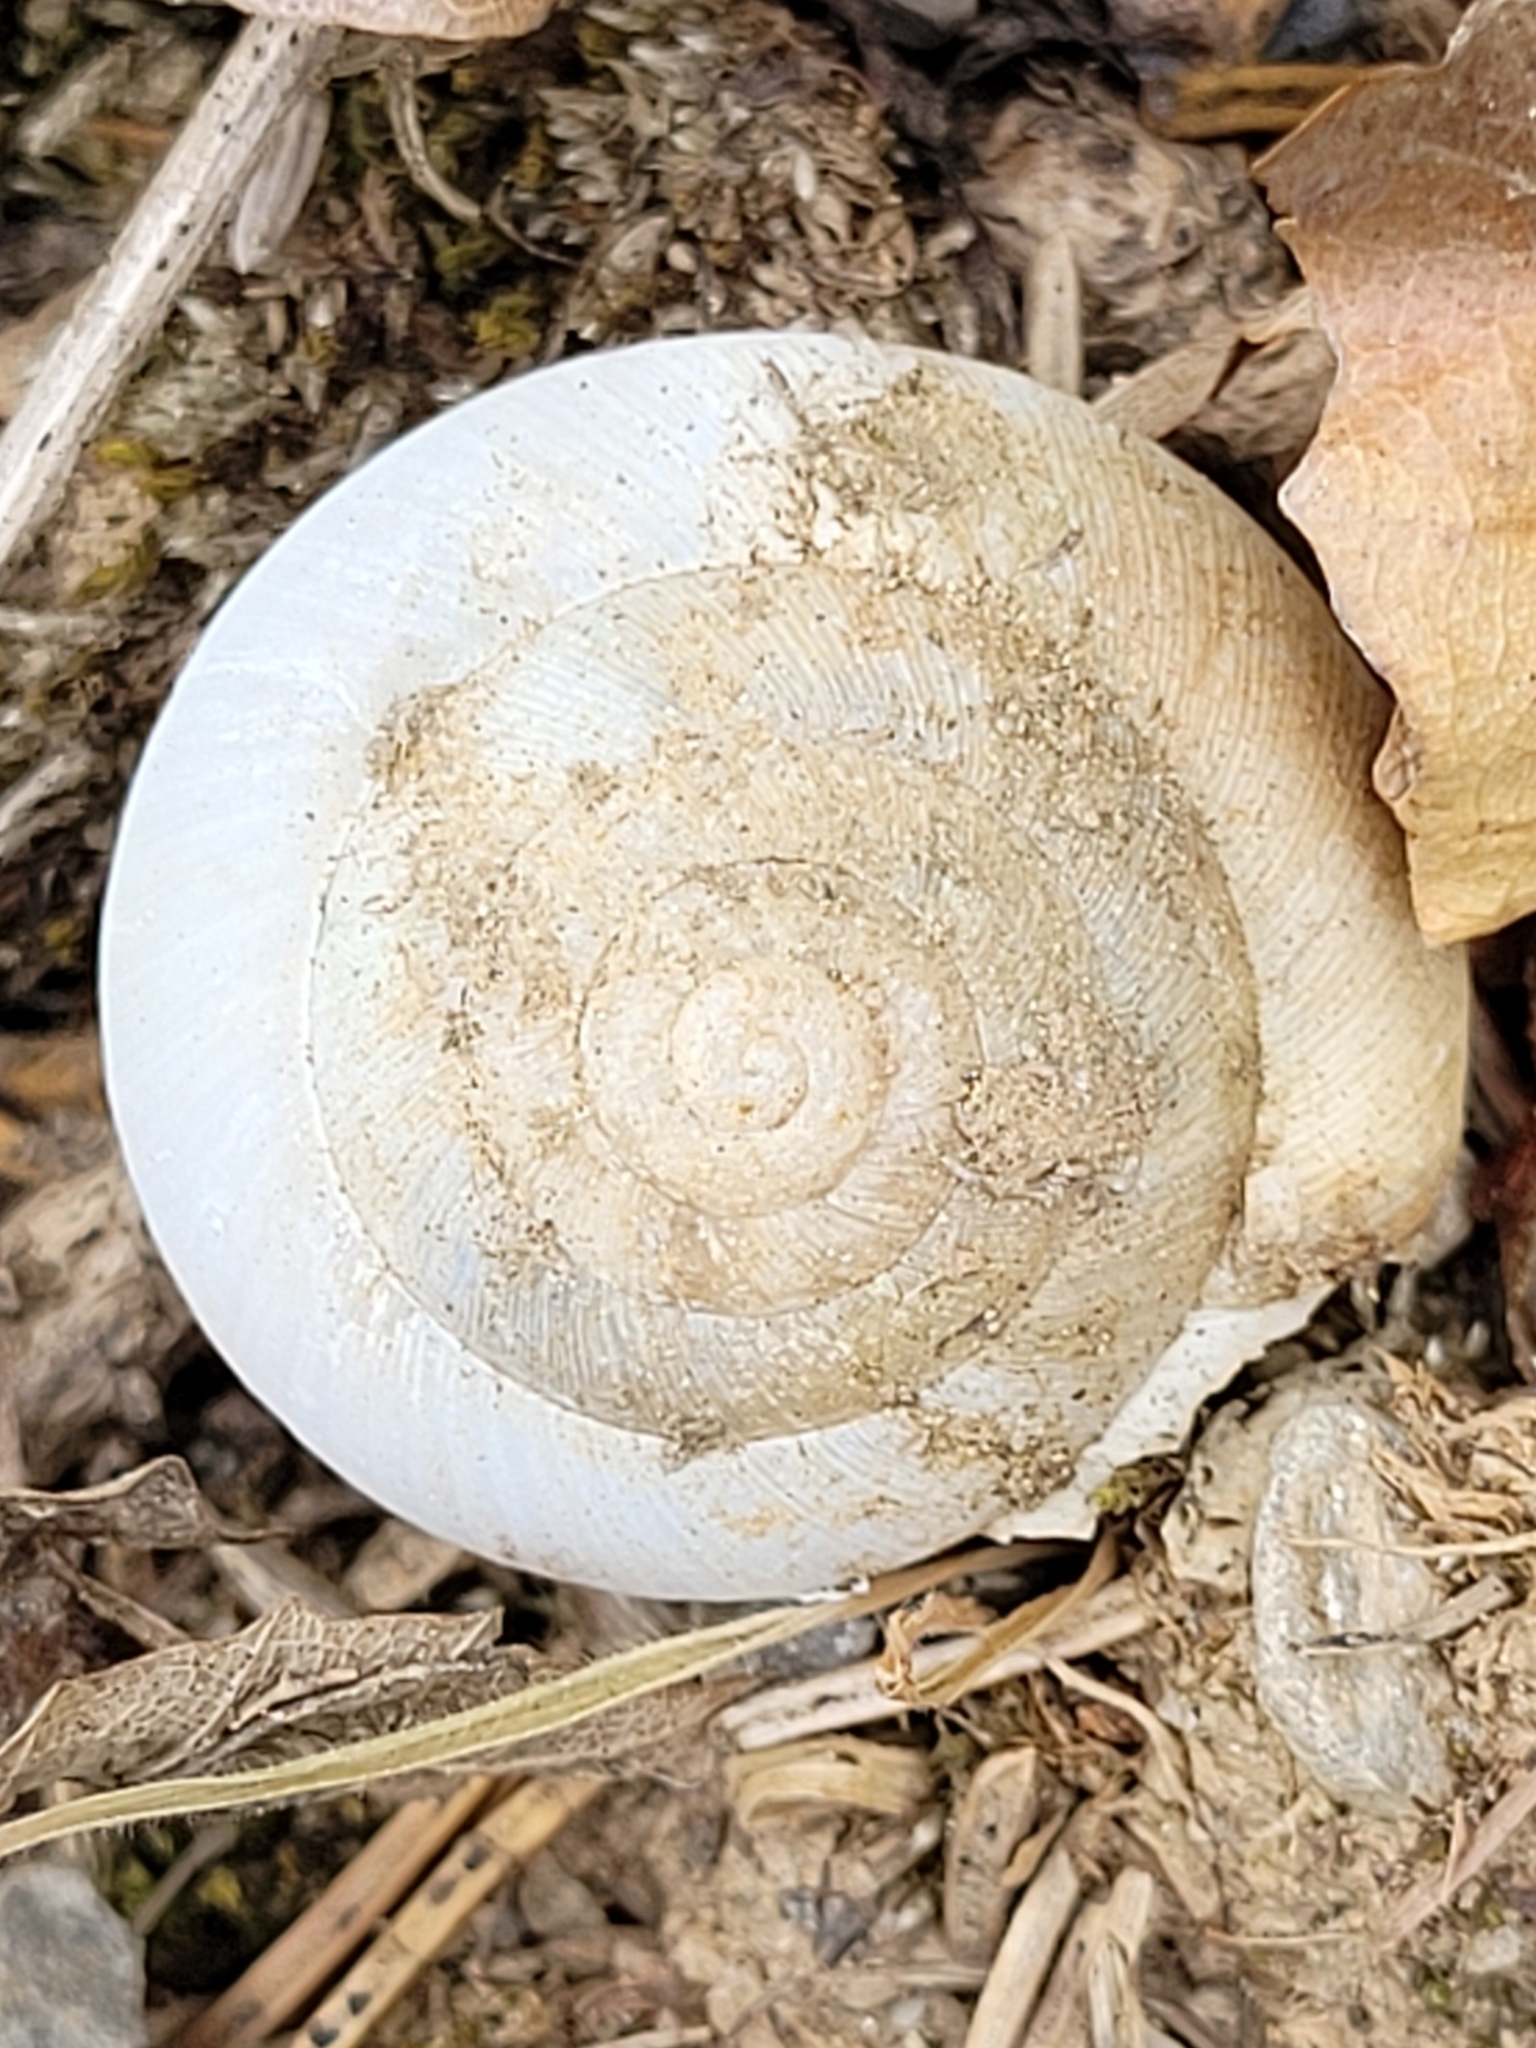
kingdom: Animalia
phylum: Mollusca
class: Gastropoda
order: Stylommatophora
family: Zonitidae
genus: Aegopis
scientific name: Aegopis verticillus
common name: Giant glass snail
